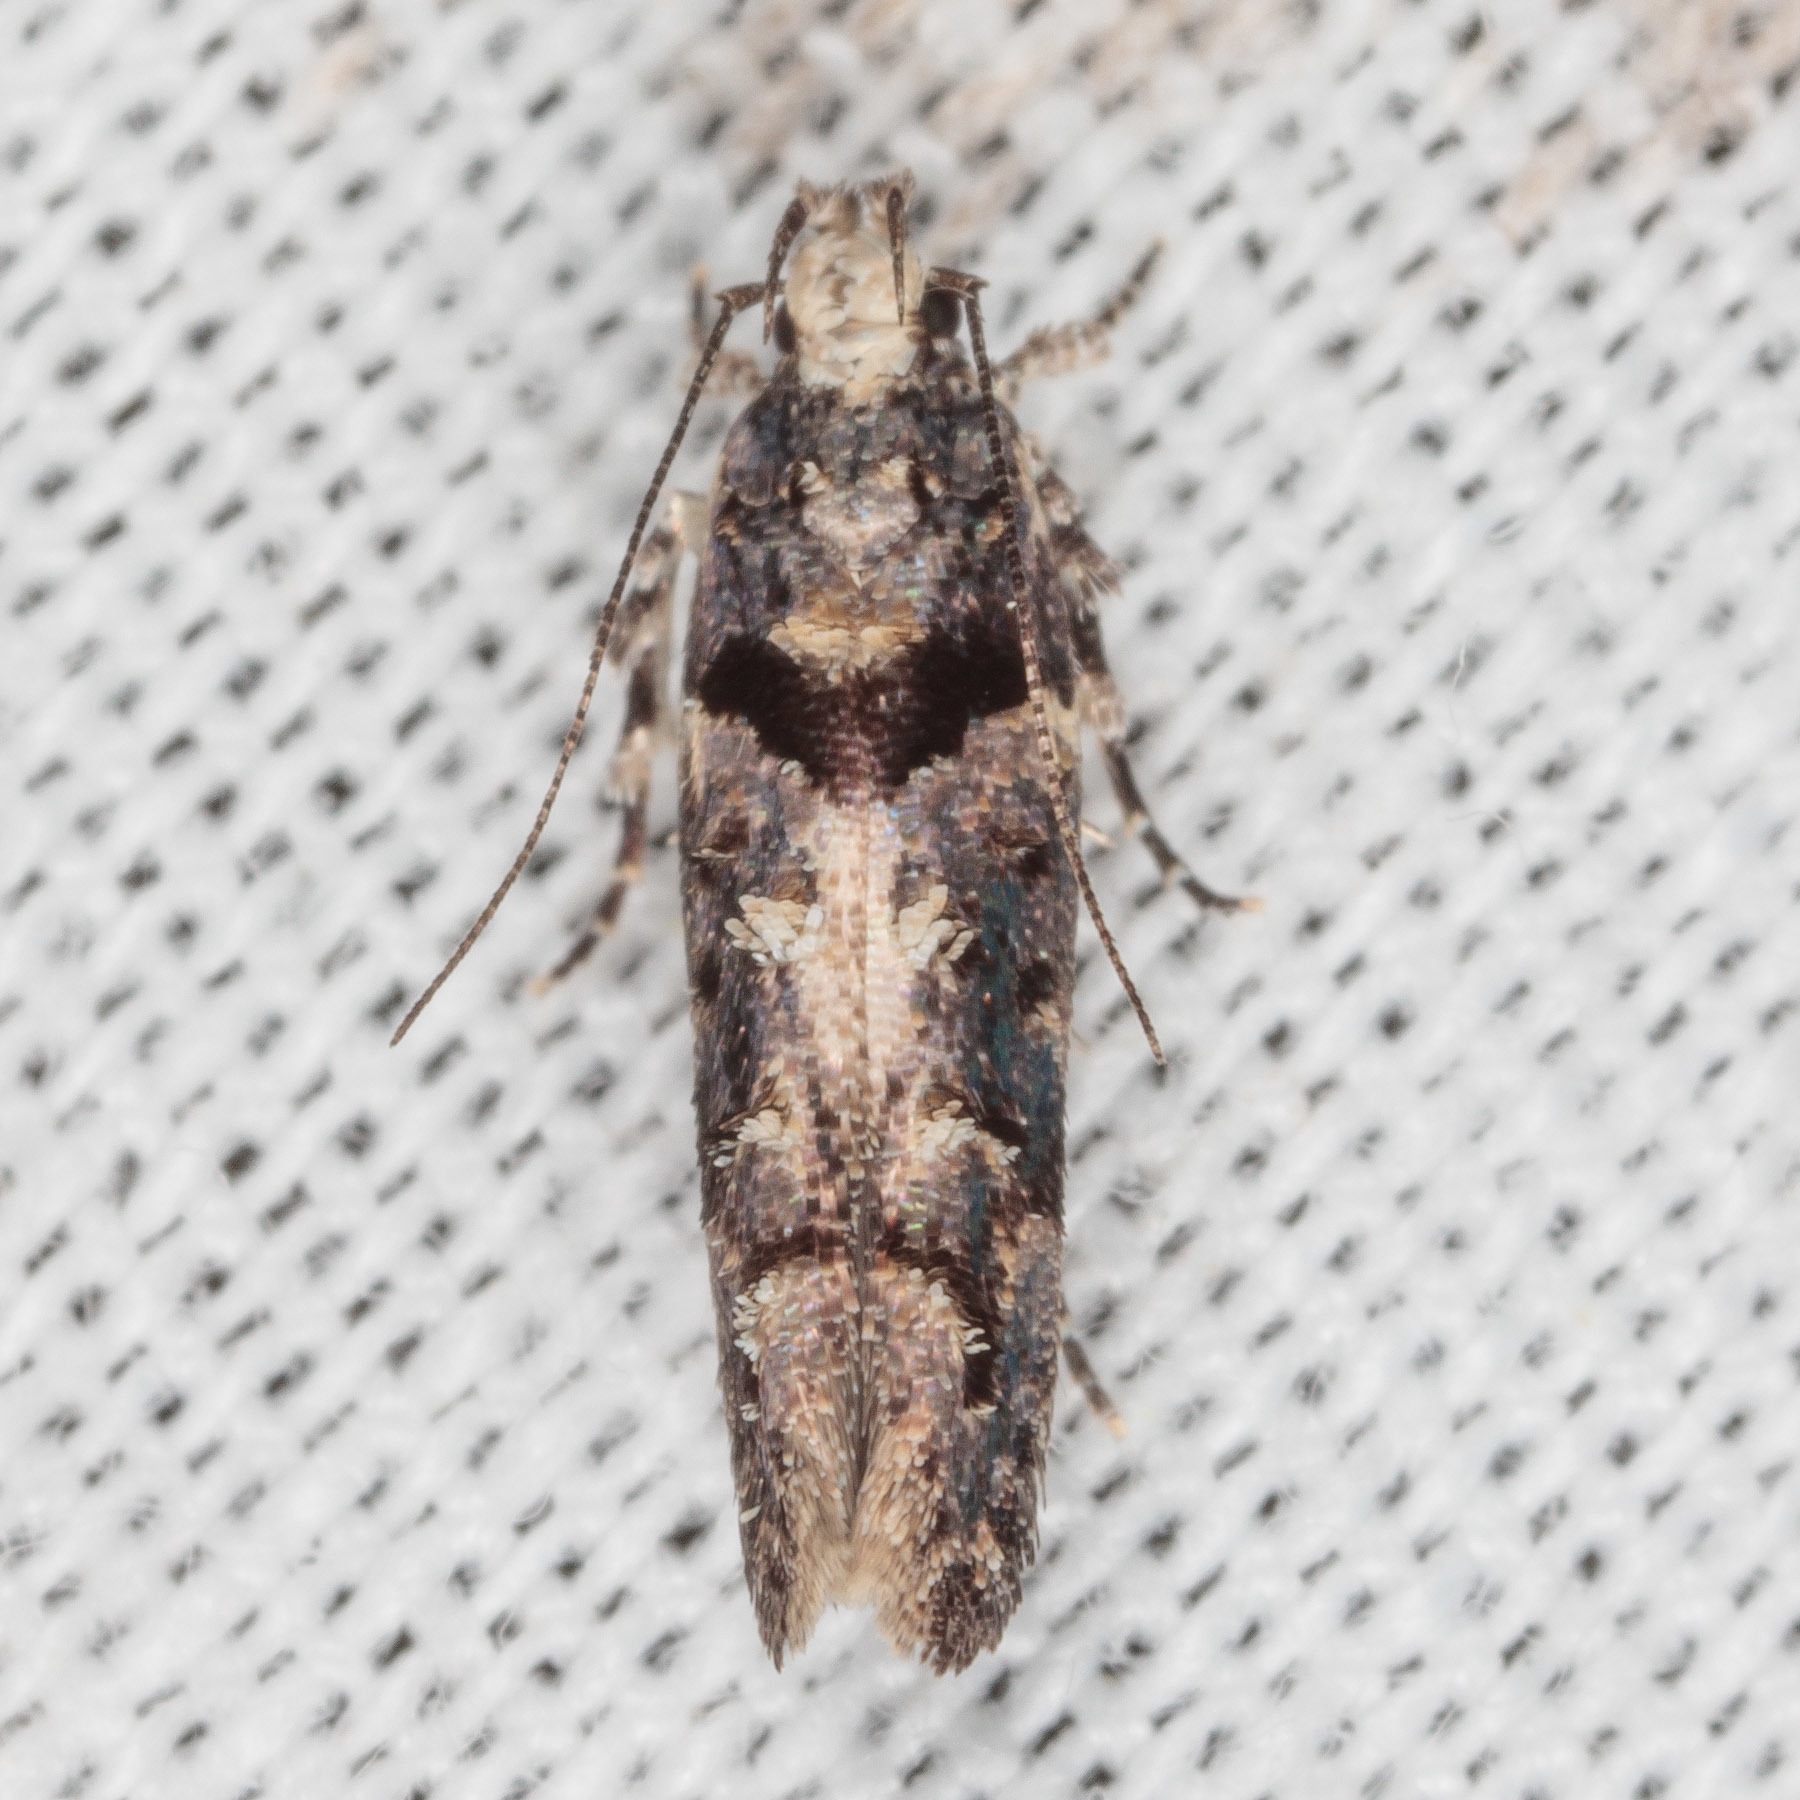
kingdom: Animalia
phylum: Arthropoda
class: Insecta
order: Lepidoptera
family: Gelechiidae
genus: Telphusa
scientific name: Telphusa perspicua
